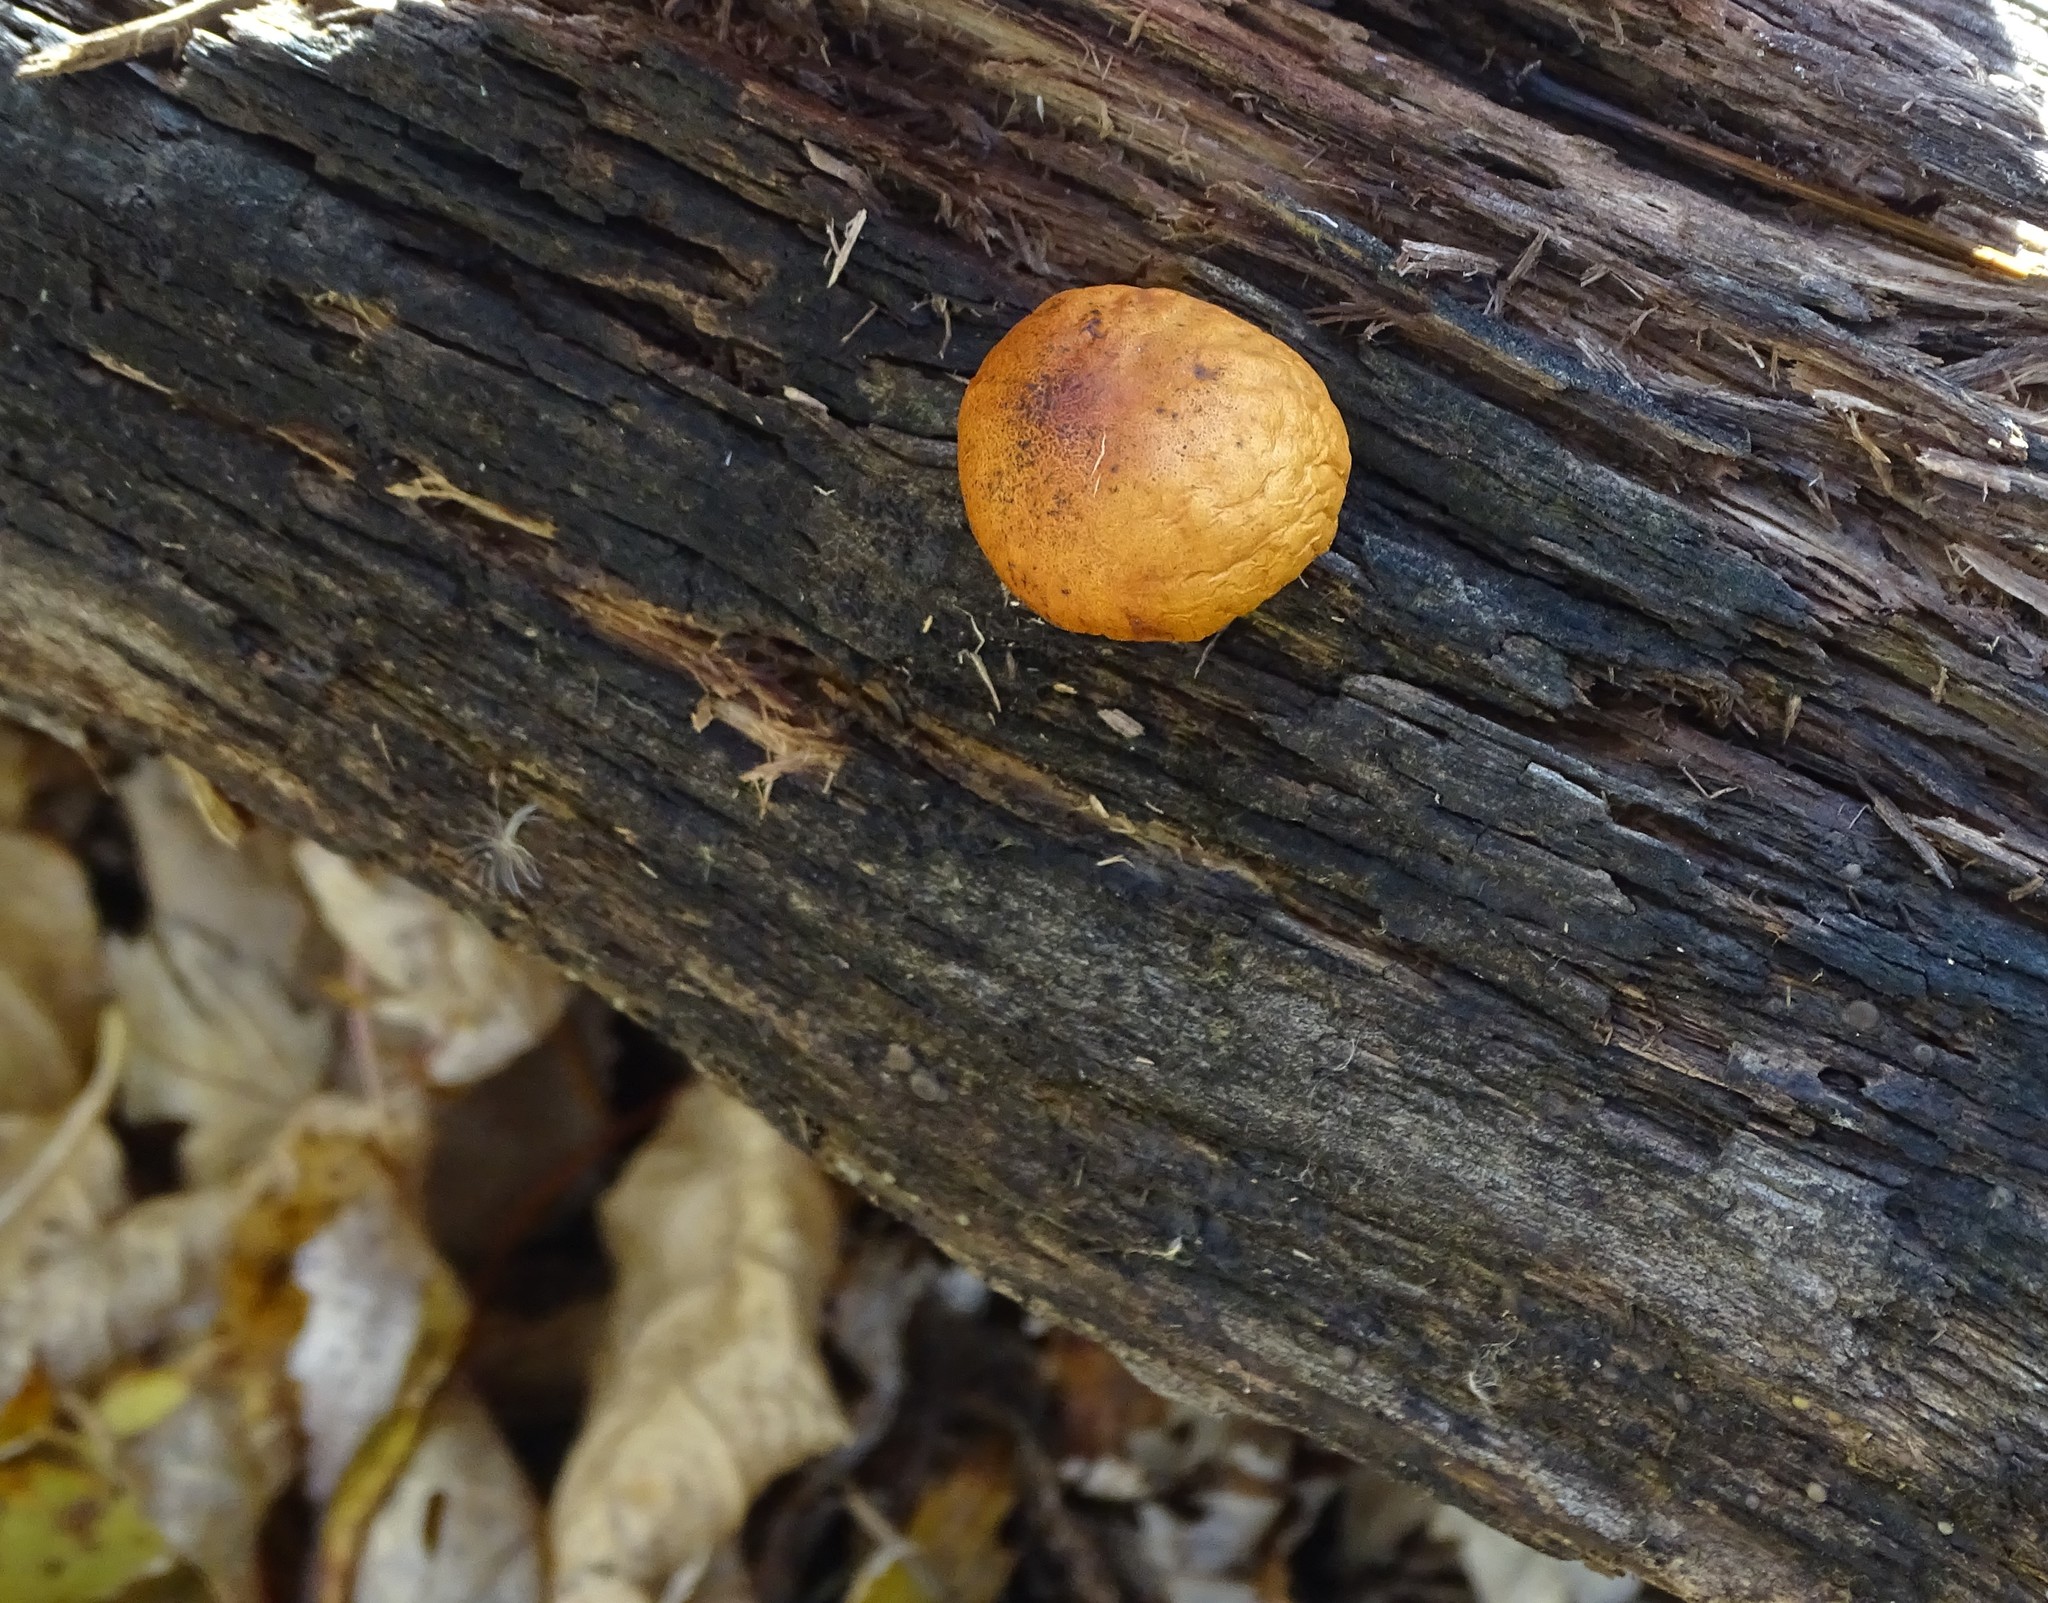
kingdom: Fungi
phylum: Basidiomycota
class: Agaricomycetes
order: Agaricales
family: Hymenogastraceae
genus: Galerina
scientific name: Galerina marginata
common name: Funeral bell
